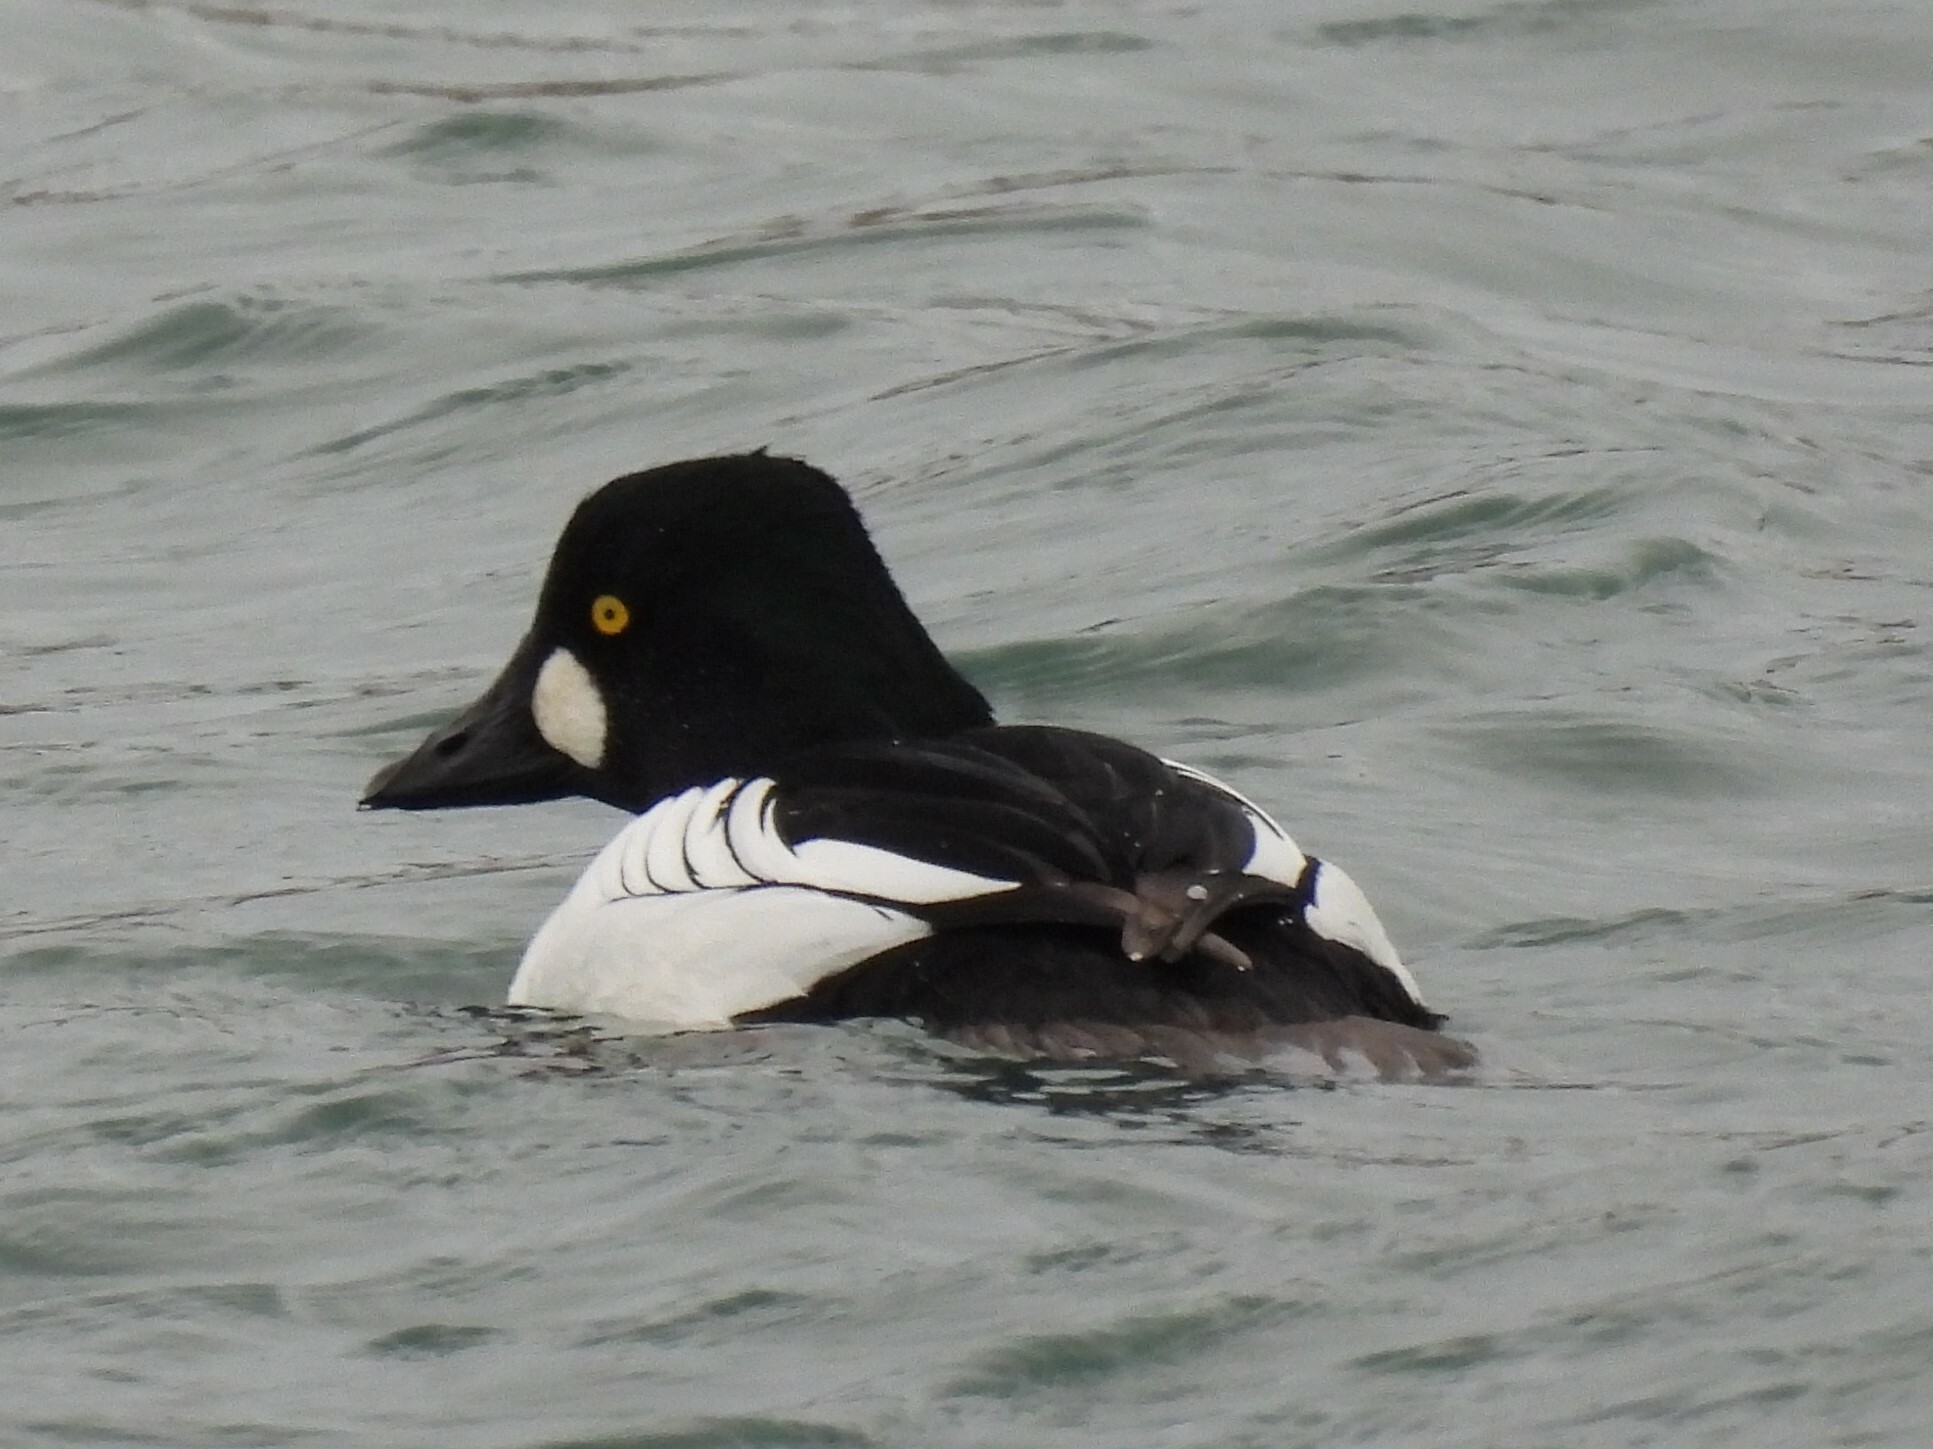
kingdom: Animalia
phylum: Chordata
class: Aves
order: Anseriformes
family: Anatidae
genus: Bucephala
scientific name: Bucephala clangula
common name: Common goldeneye
